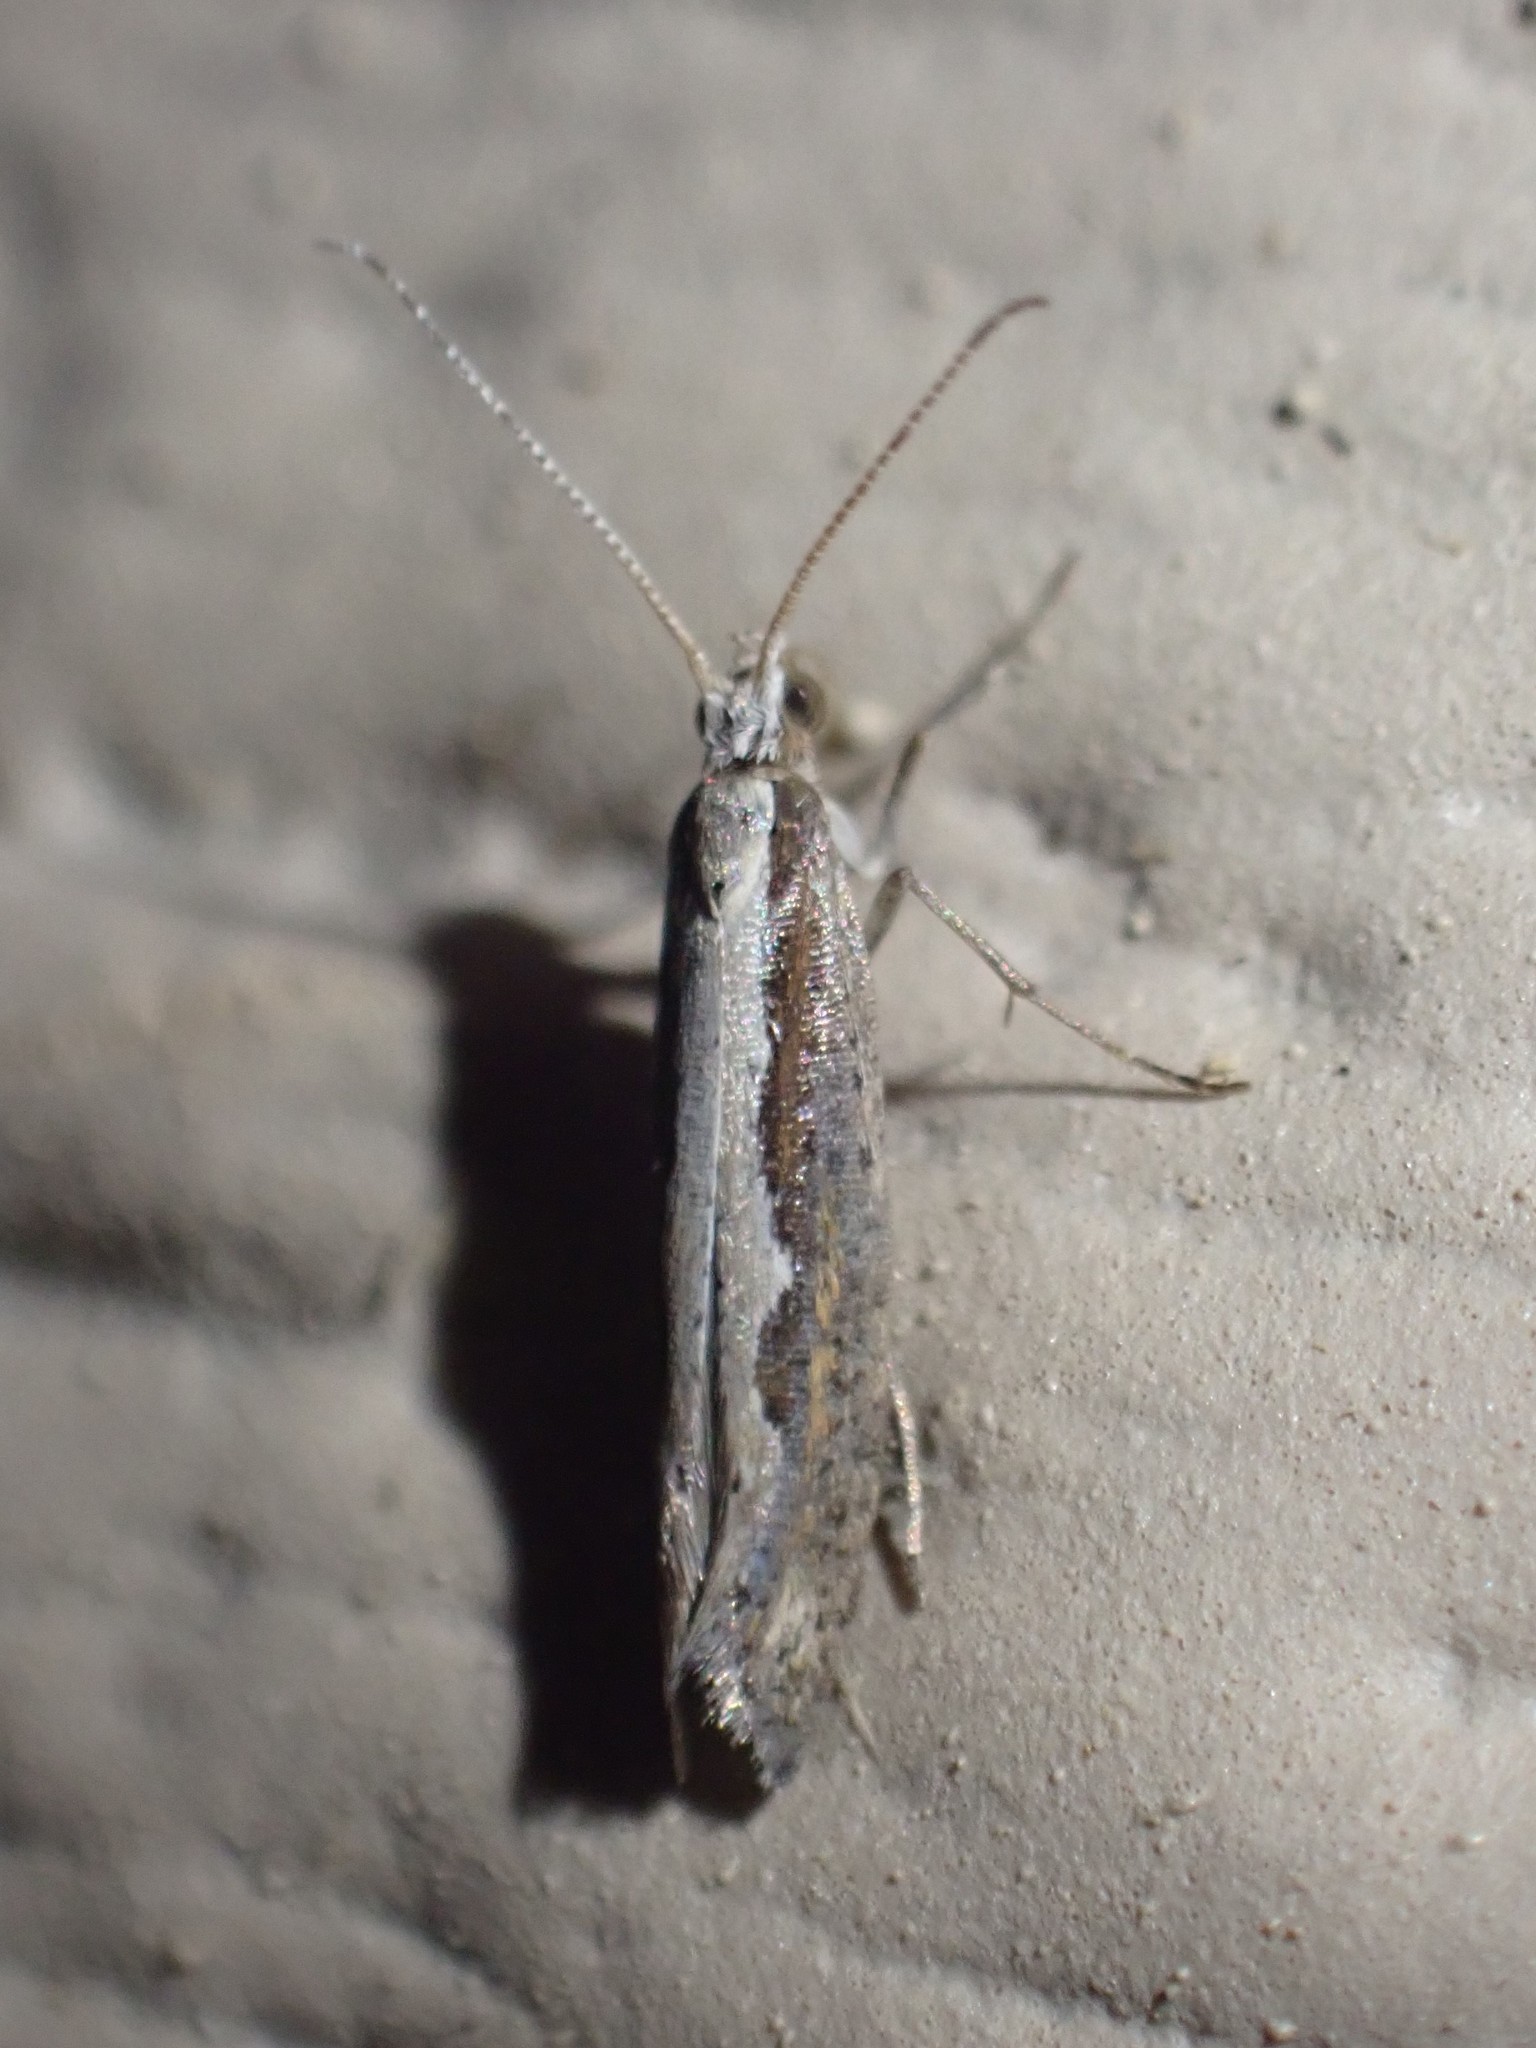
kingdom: Animalia
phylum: Arthropoda
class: Insecta
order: Lepidoptera
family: Plutellidae
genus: Plutella
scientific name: Plutella xylostella
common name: Diamond-back moth
